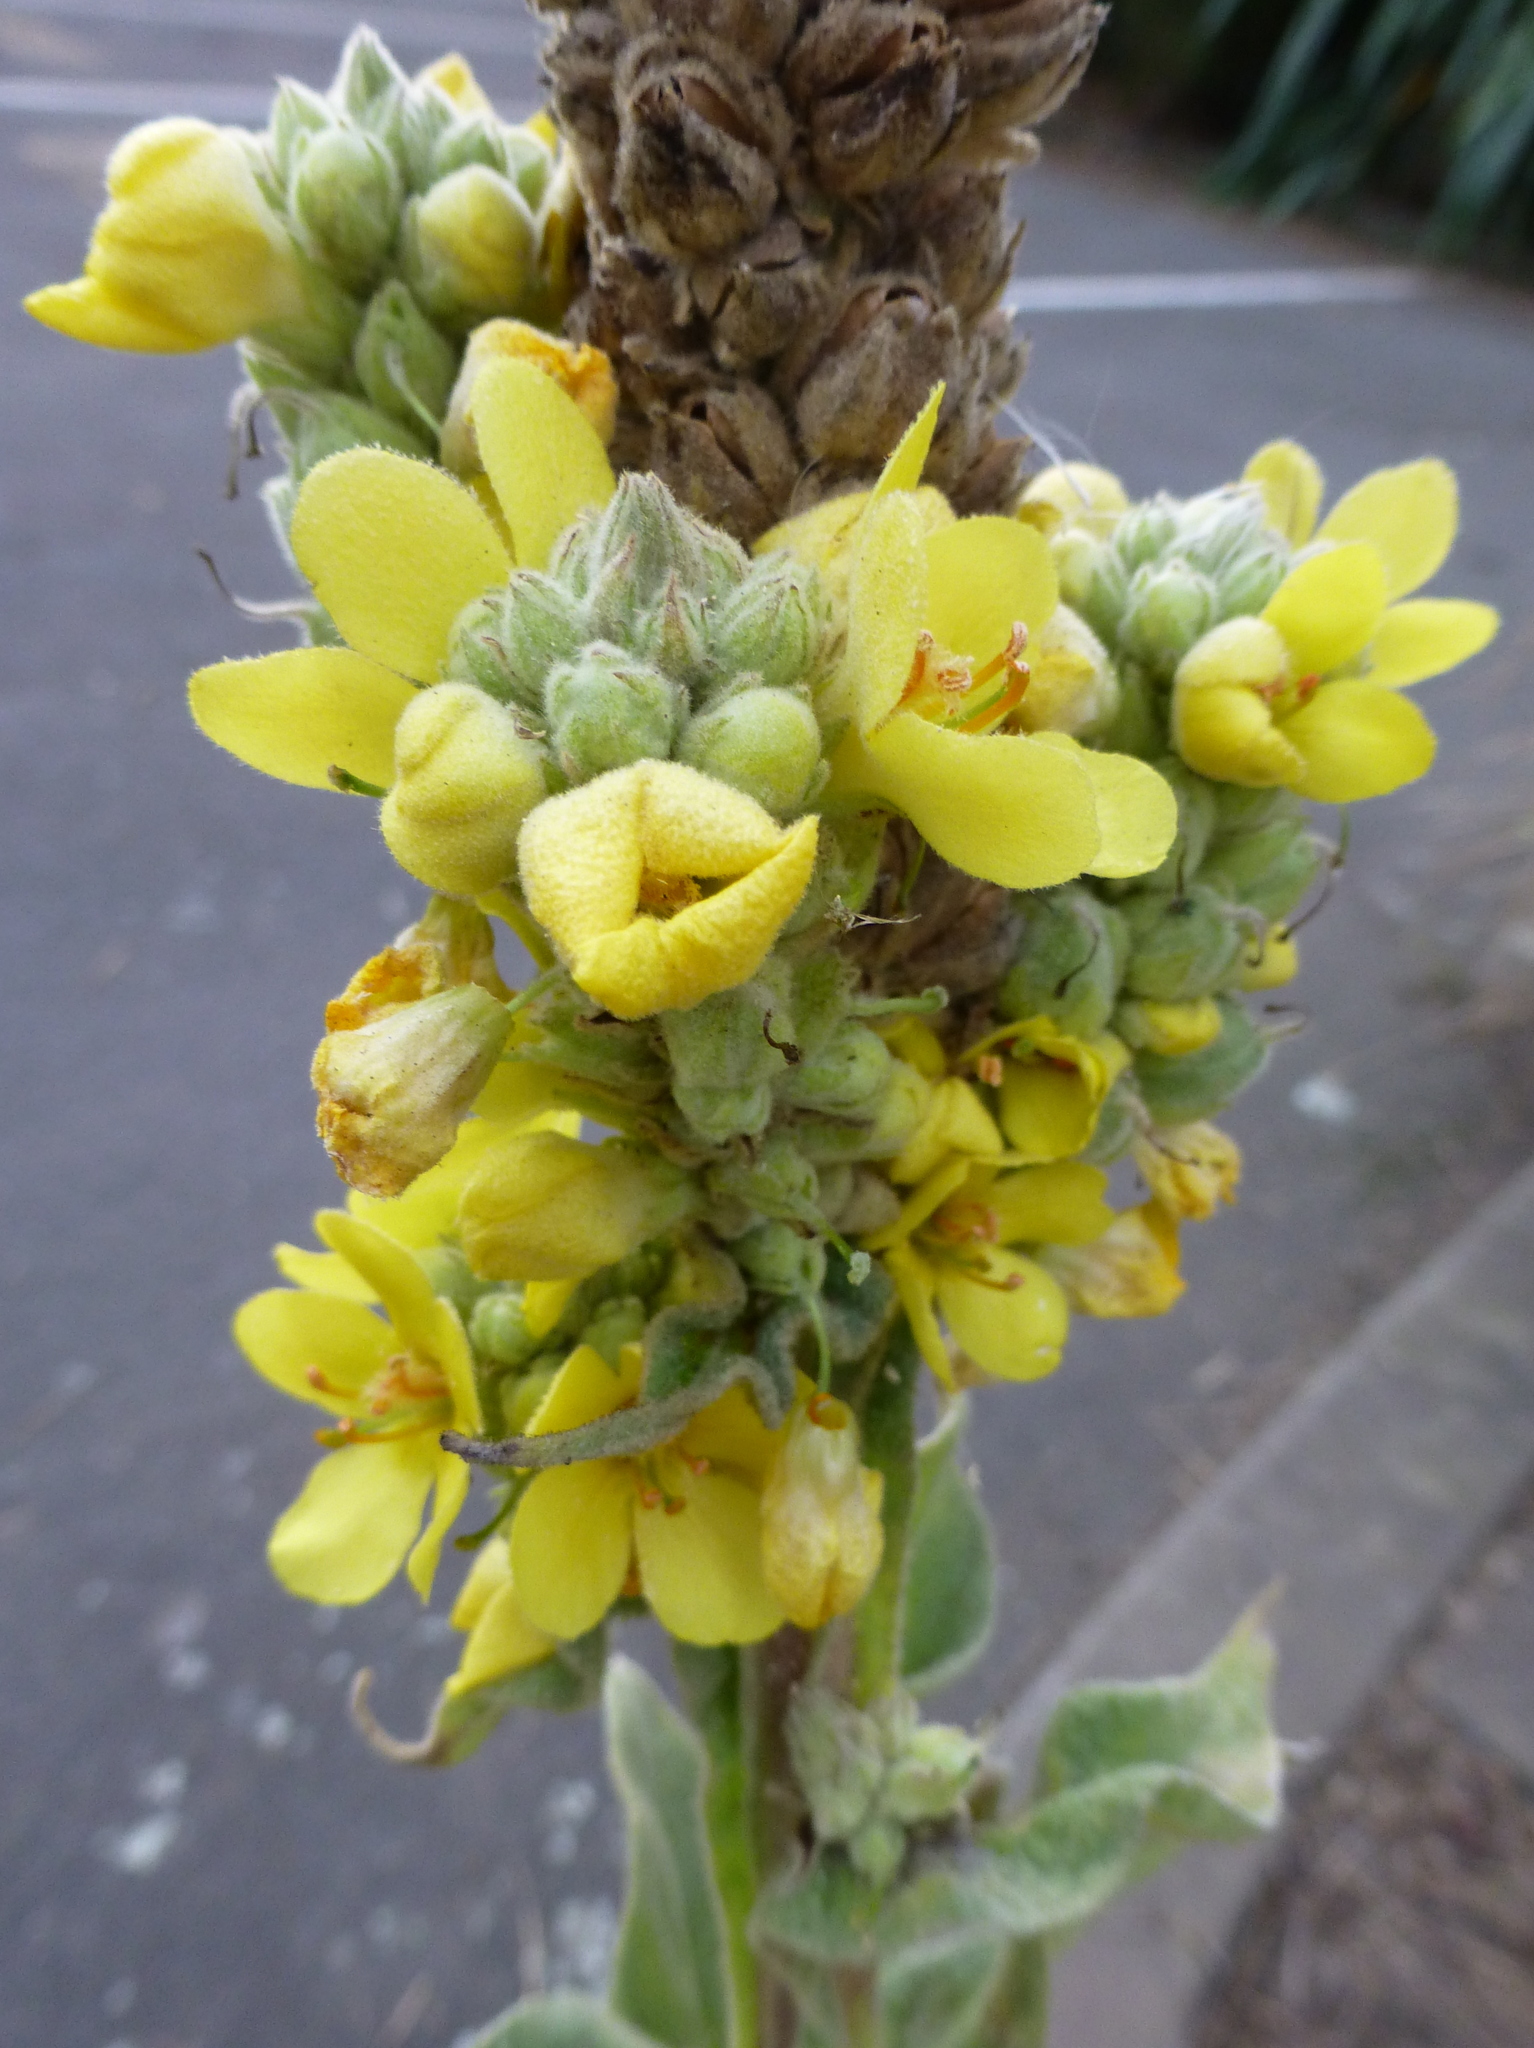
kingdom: Plantae
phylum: Tracheophyta
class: Magnoliopsida
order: Lamiales
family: Scrophulariaceae
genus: Verbascum
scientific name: Verbascum thapsus
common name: Common mullein
